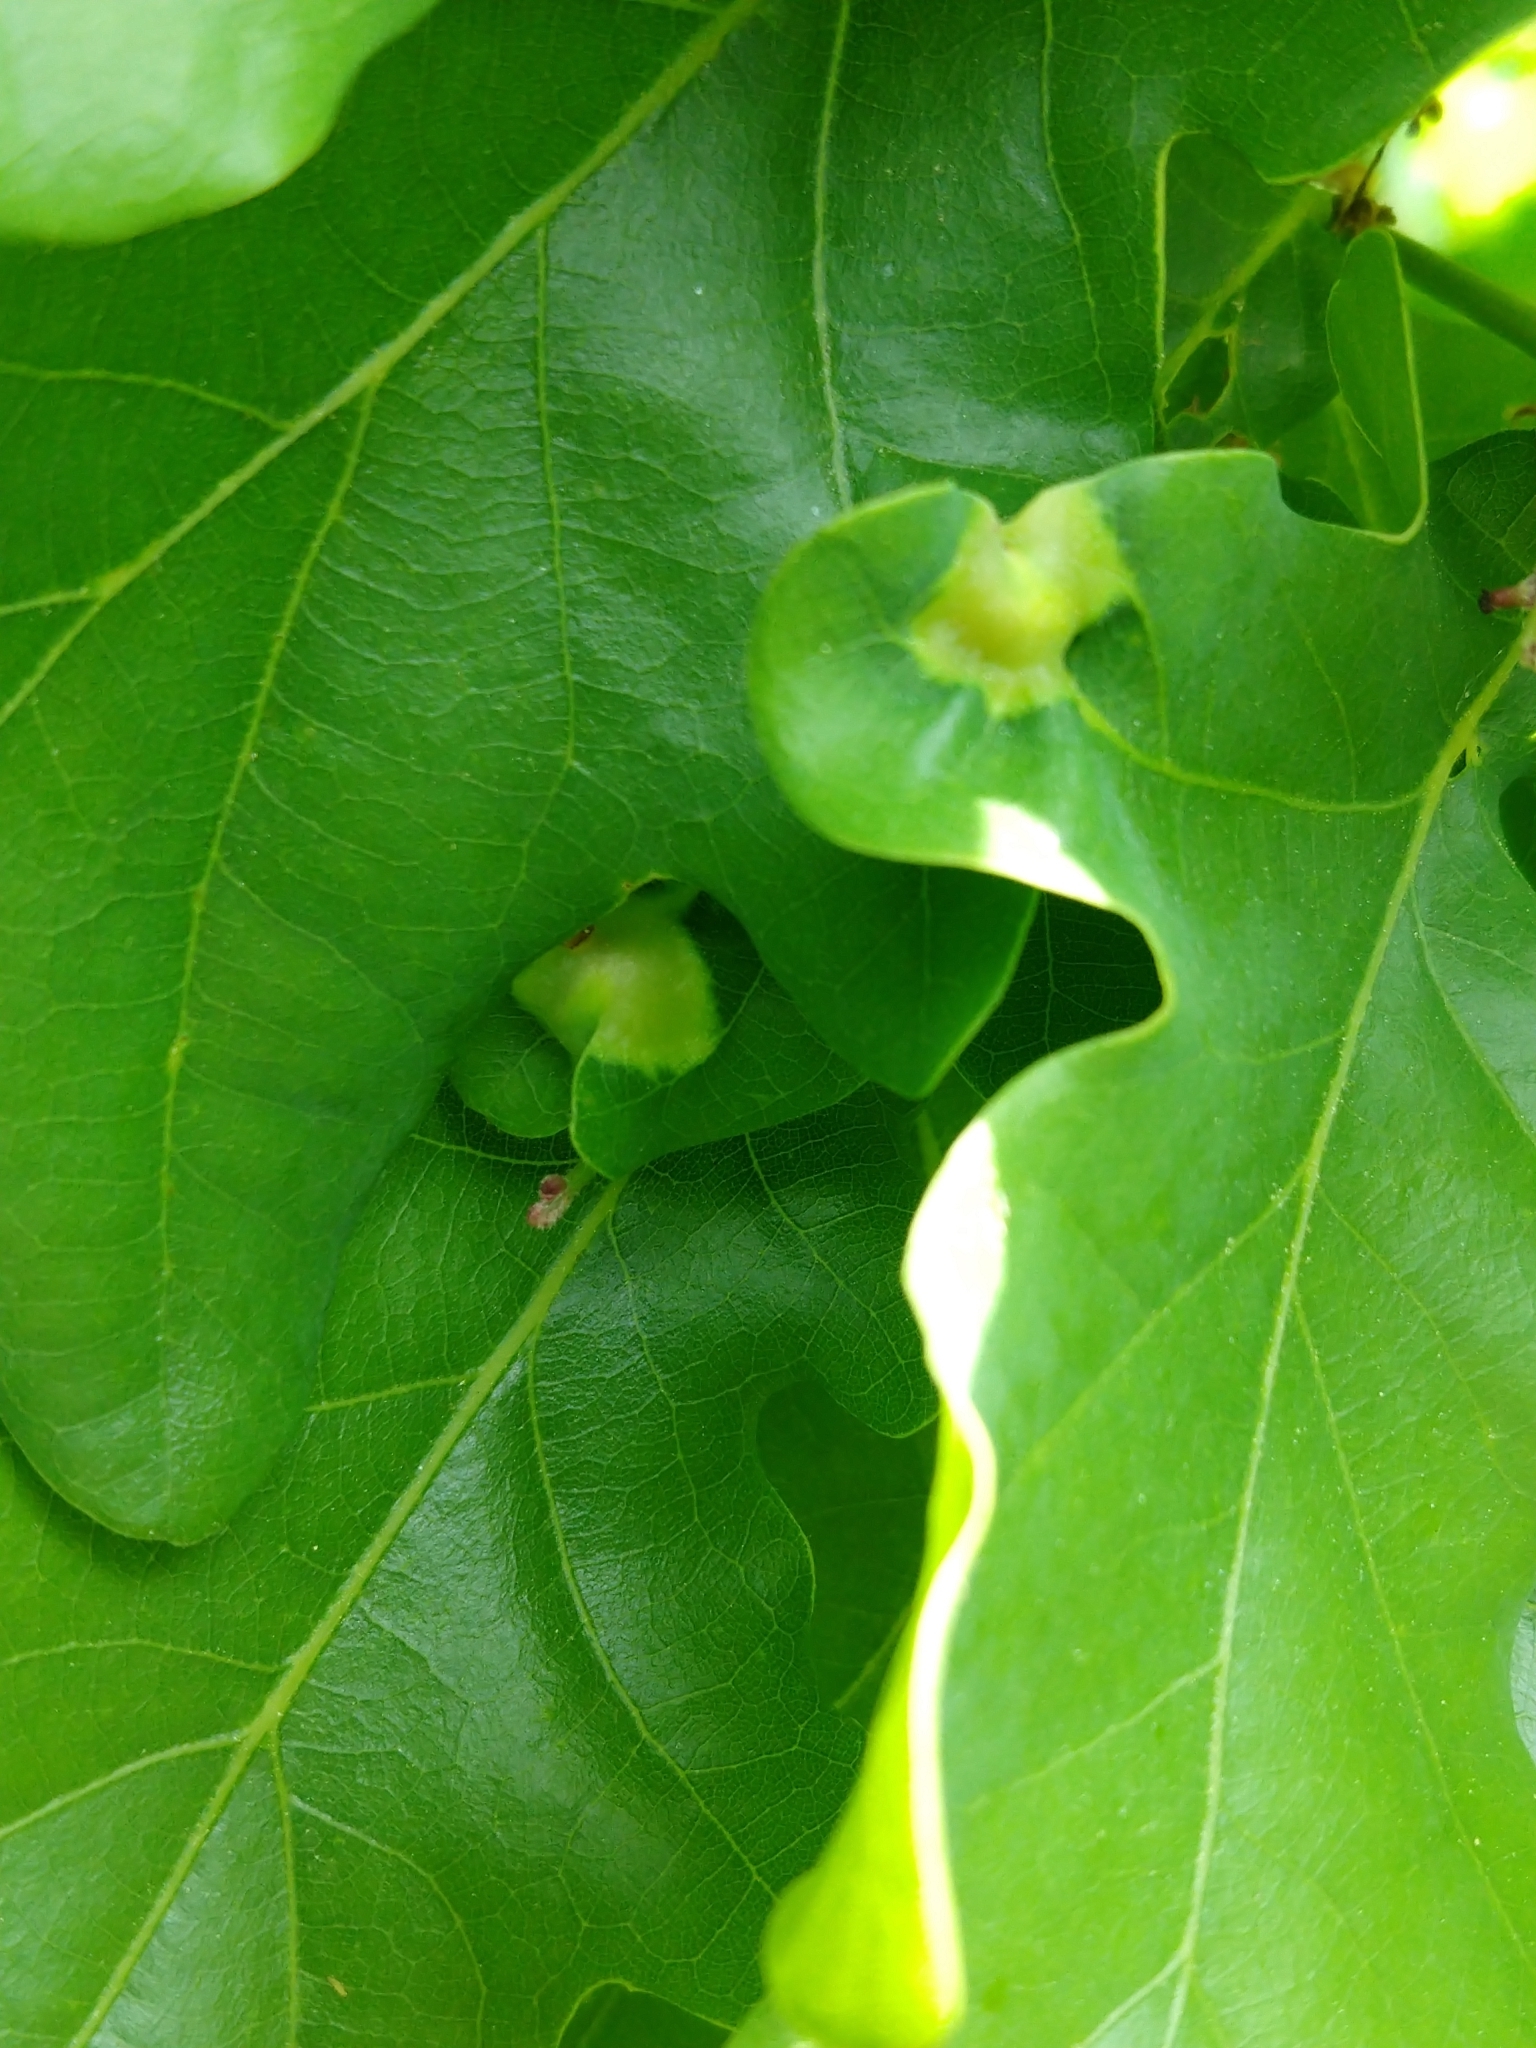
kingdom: Animalia
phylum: Arthropoda
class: Insecta
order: Hymenoptera
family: Cynipidae
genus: Andricus
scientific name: Andricus curvator
